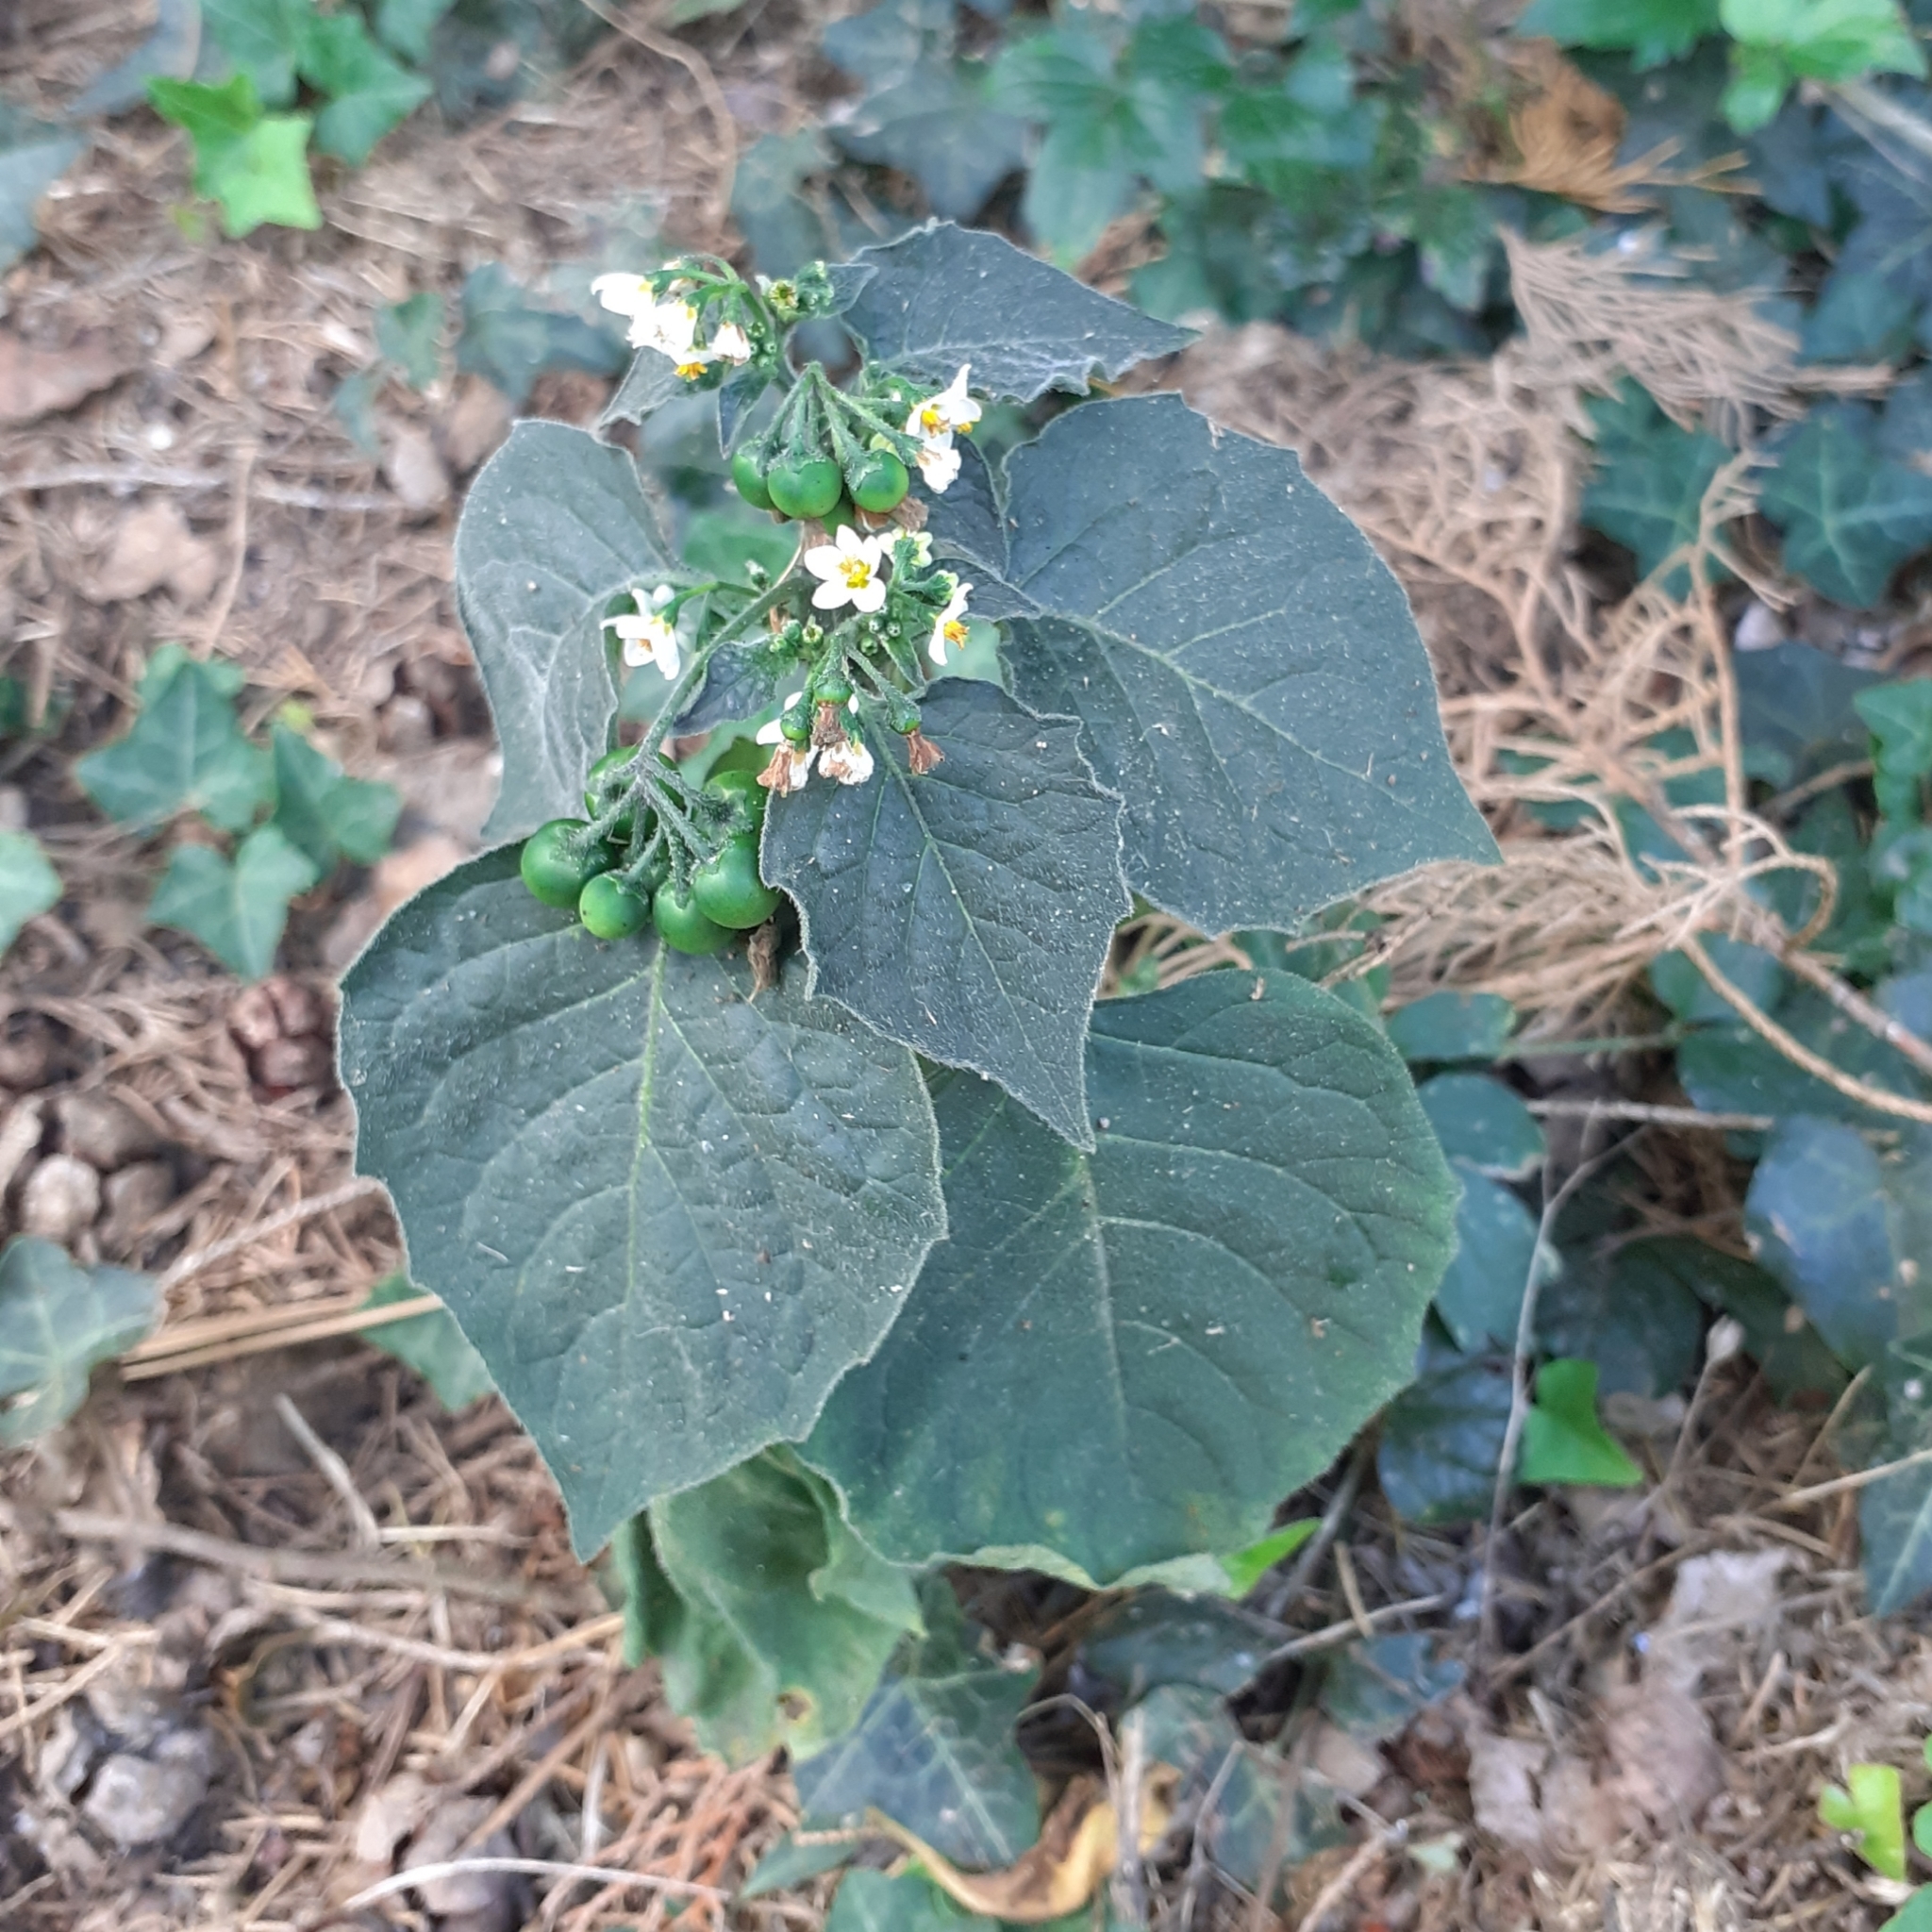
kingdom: Plantae
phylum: Tracheophyta
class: Magnoliopsida
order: Solanales
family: Solanaceae
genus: Solanum
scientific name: Solanum nigrum
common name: Black nightshade
